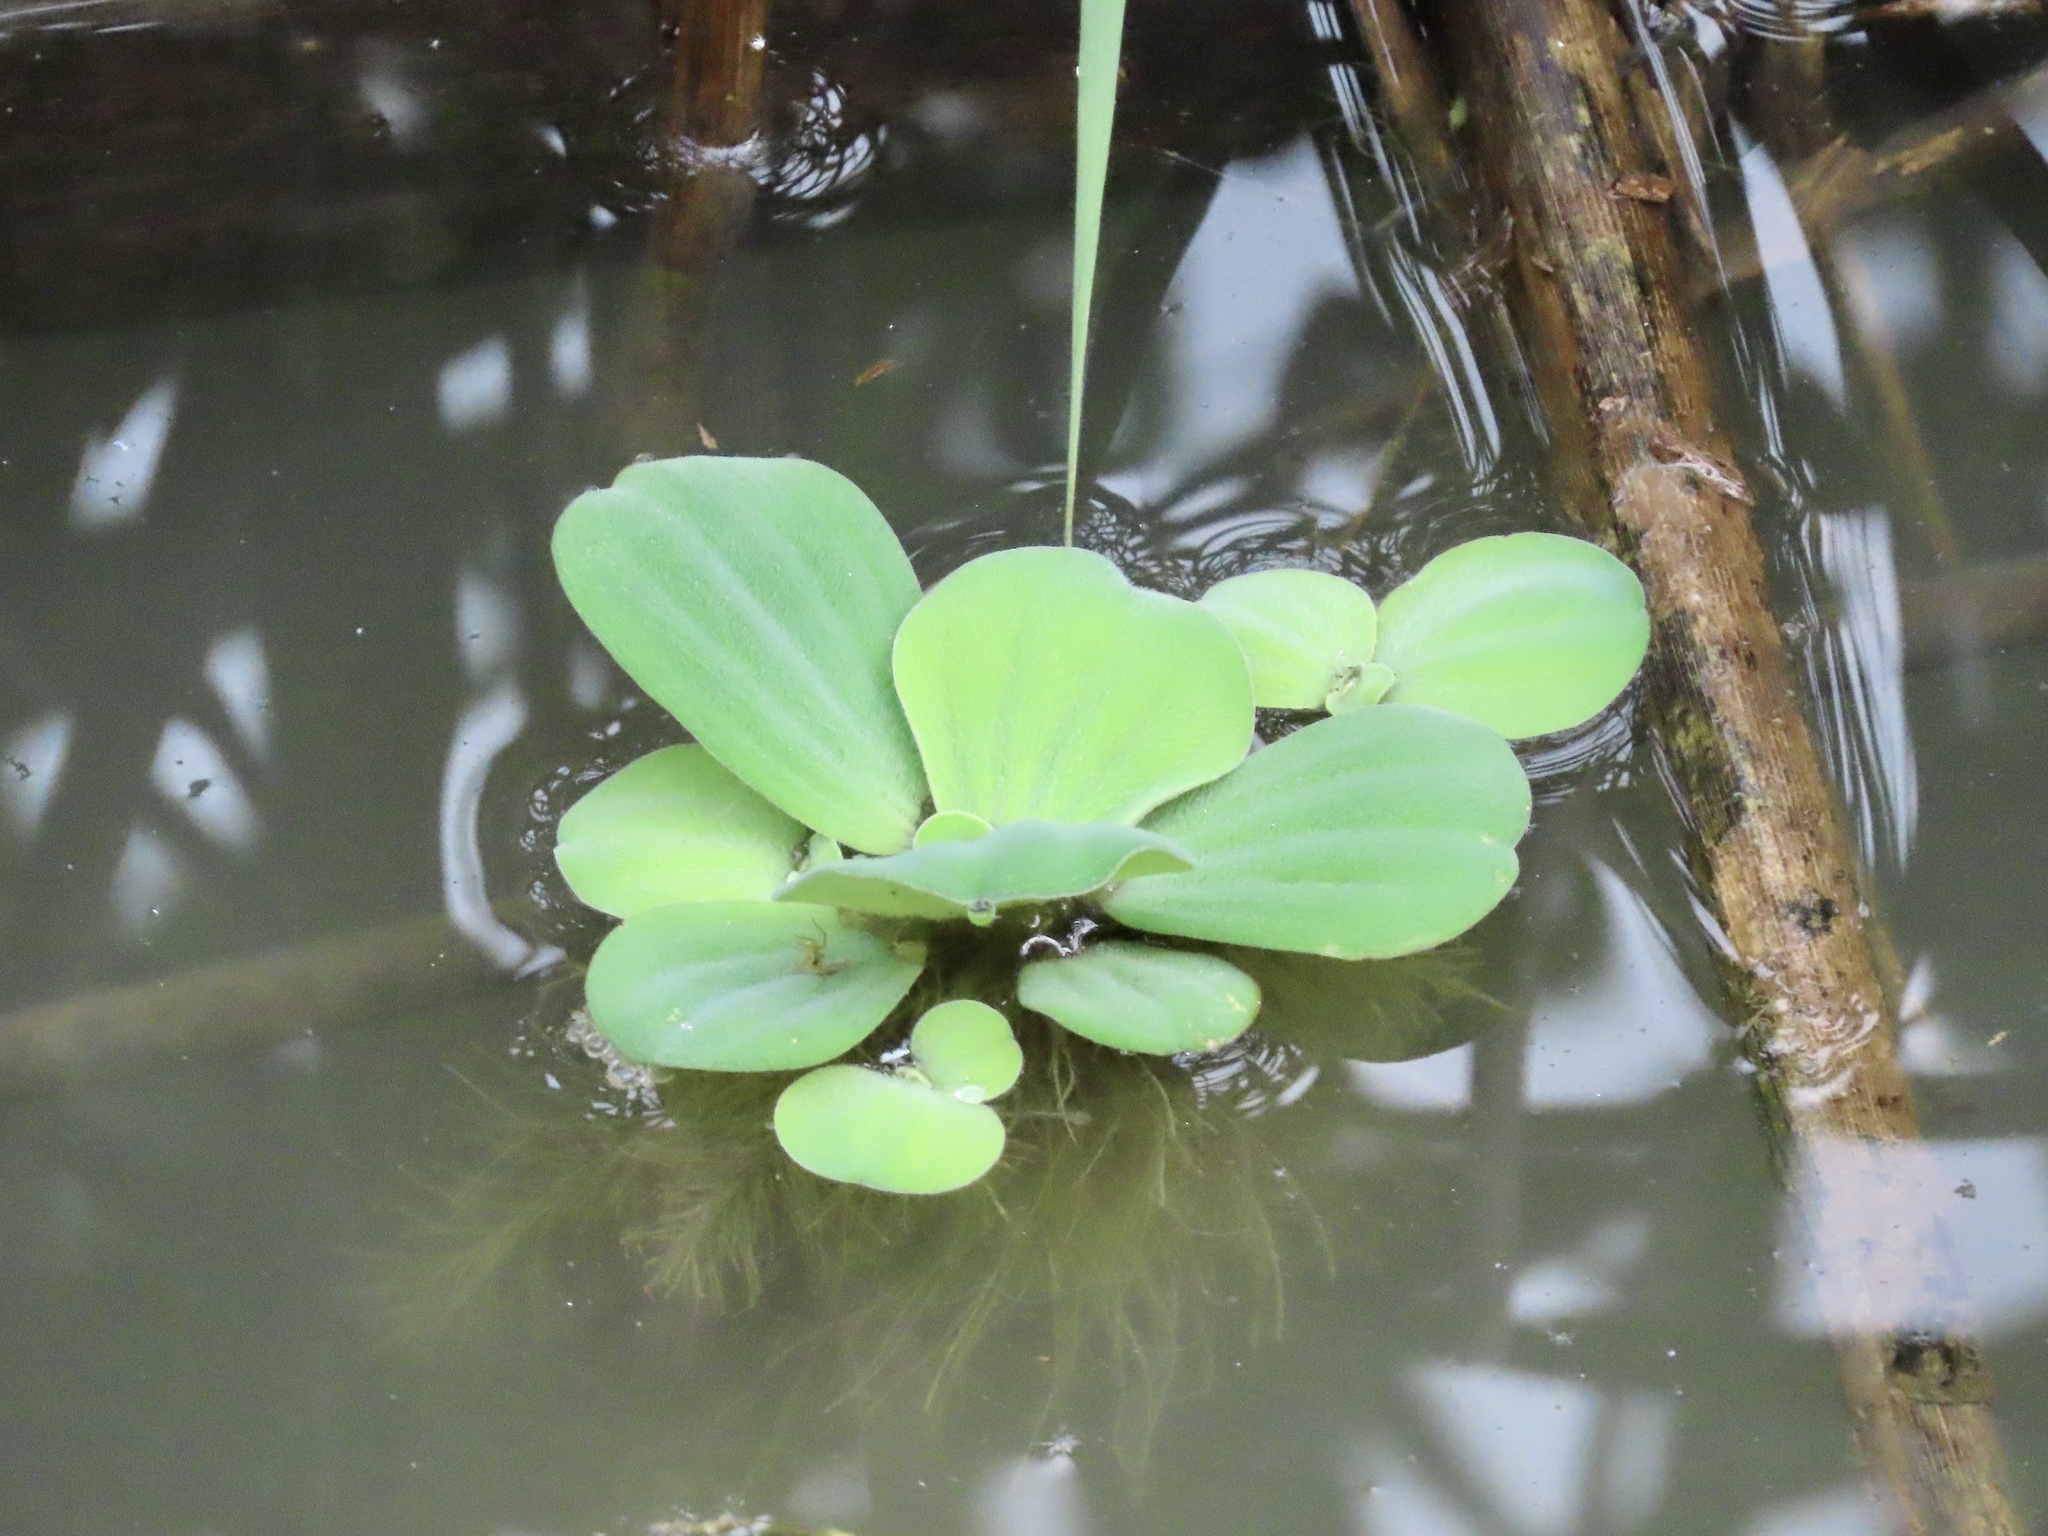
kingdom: Plantae
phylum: Tracheophyta
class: Liliopsida
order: Alismatales
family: Araceae
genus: Pistia
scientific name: Pistia stratiotes
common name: Water lettuce
